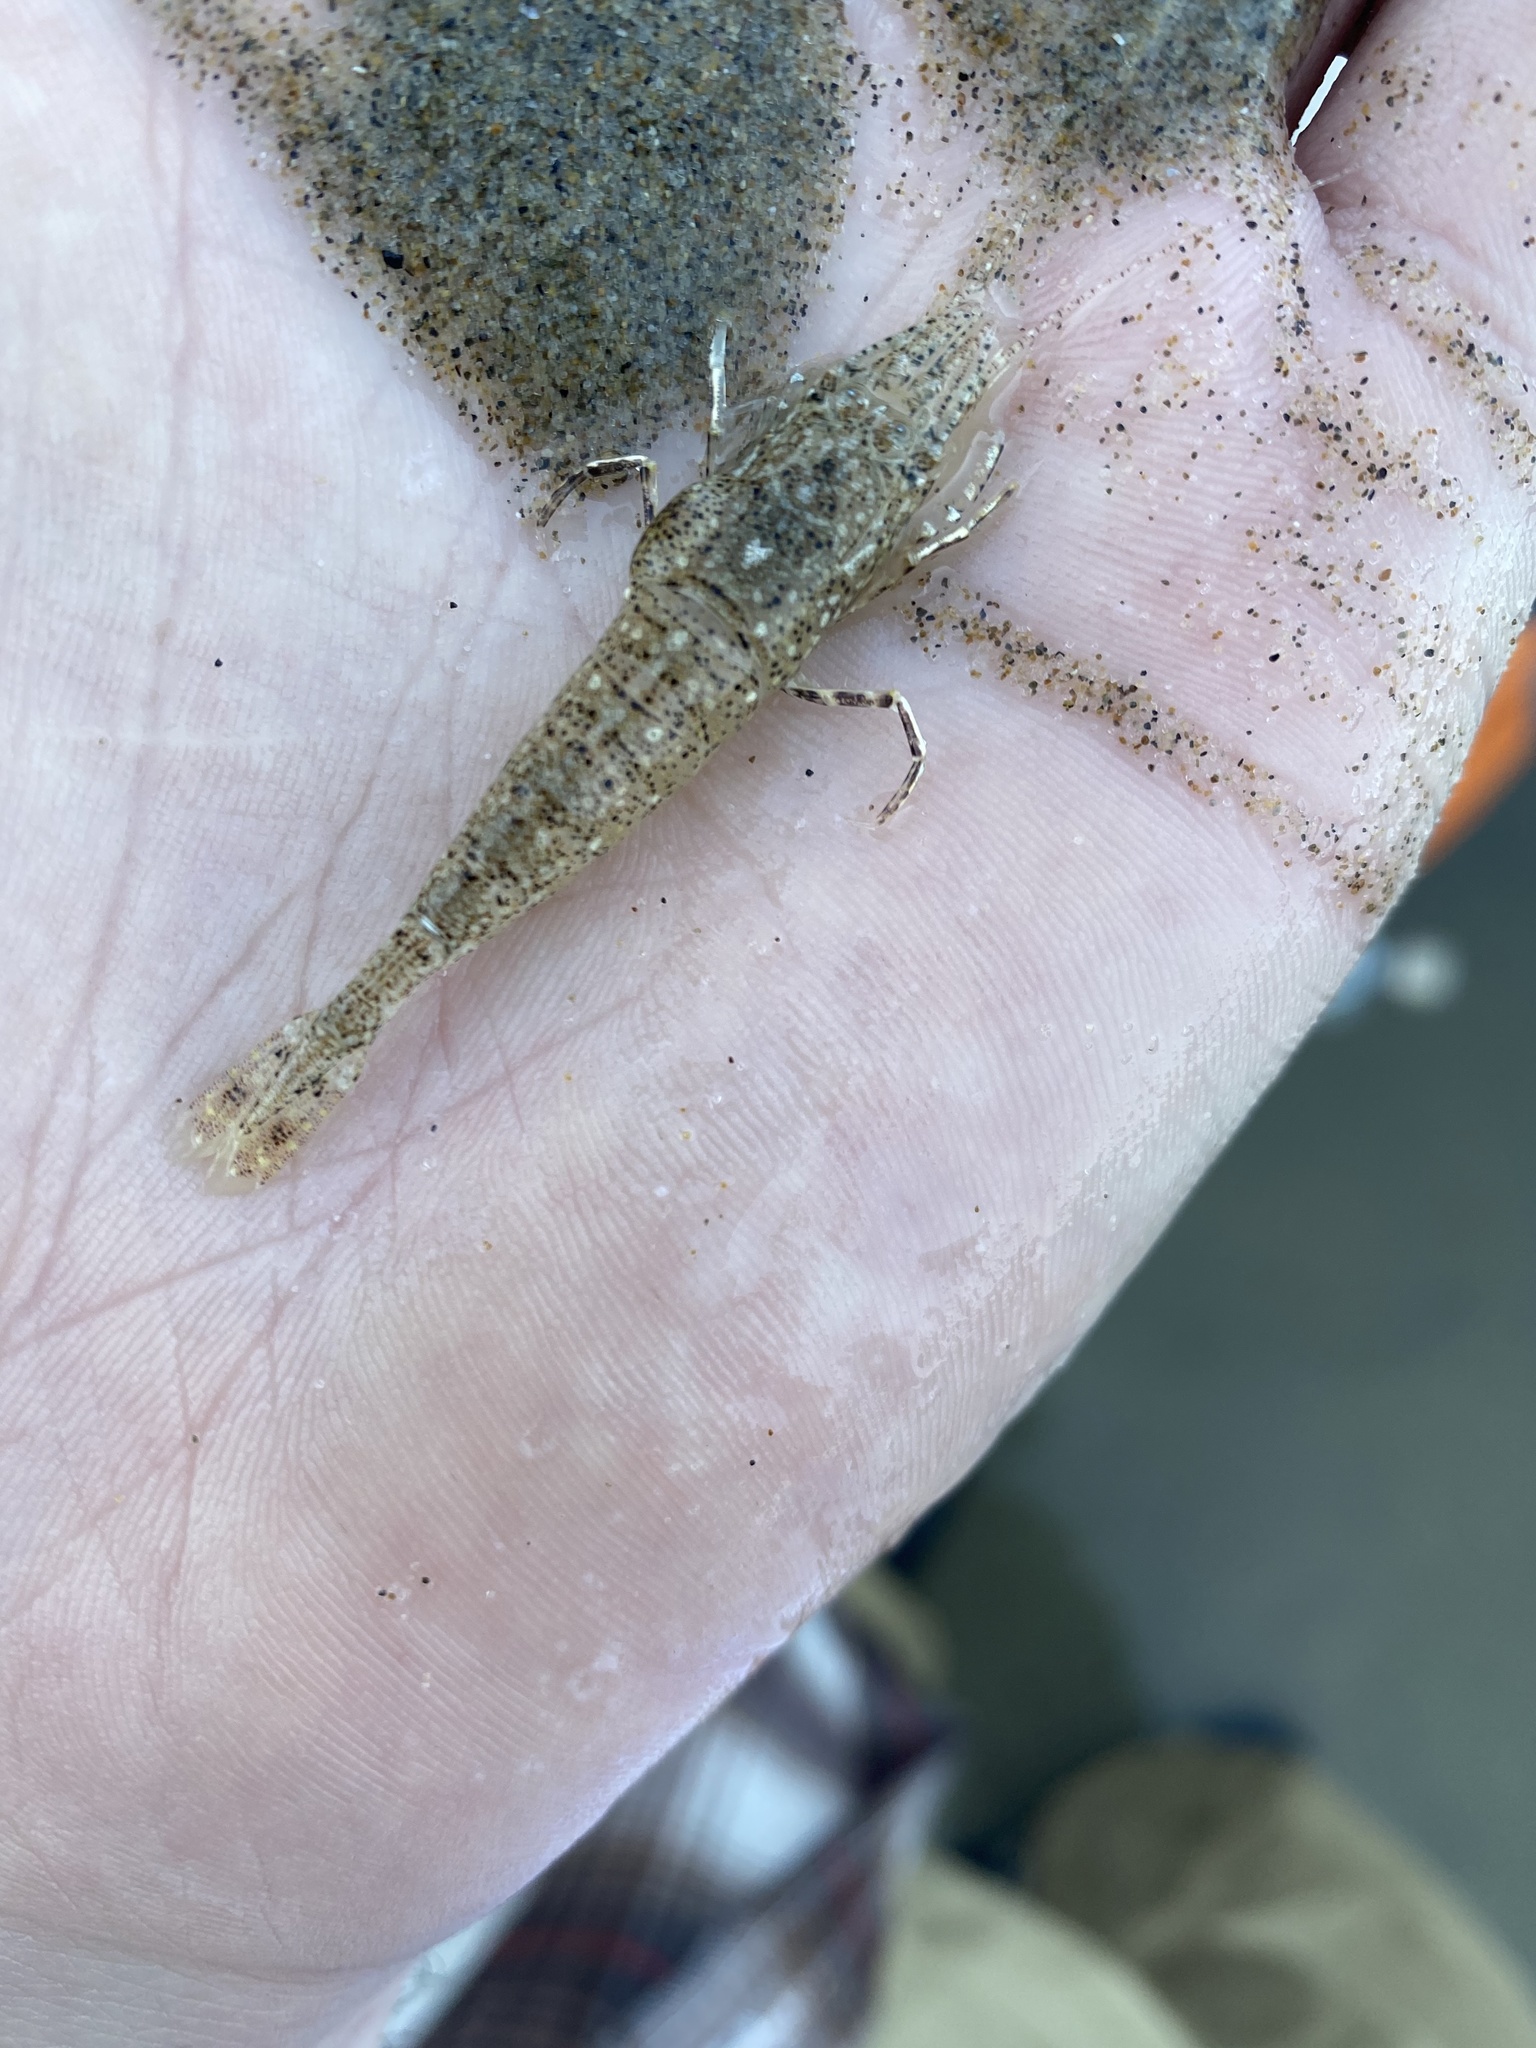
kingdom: Animalia
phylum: Arthropoda
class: Malacostraca
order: Decapoda
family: Crangonidae
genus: Lissocrangon
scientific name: Lissocrangon stylirostris
